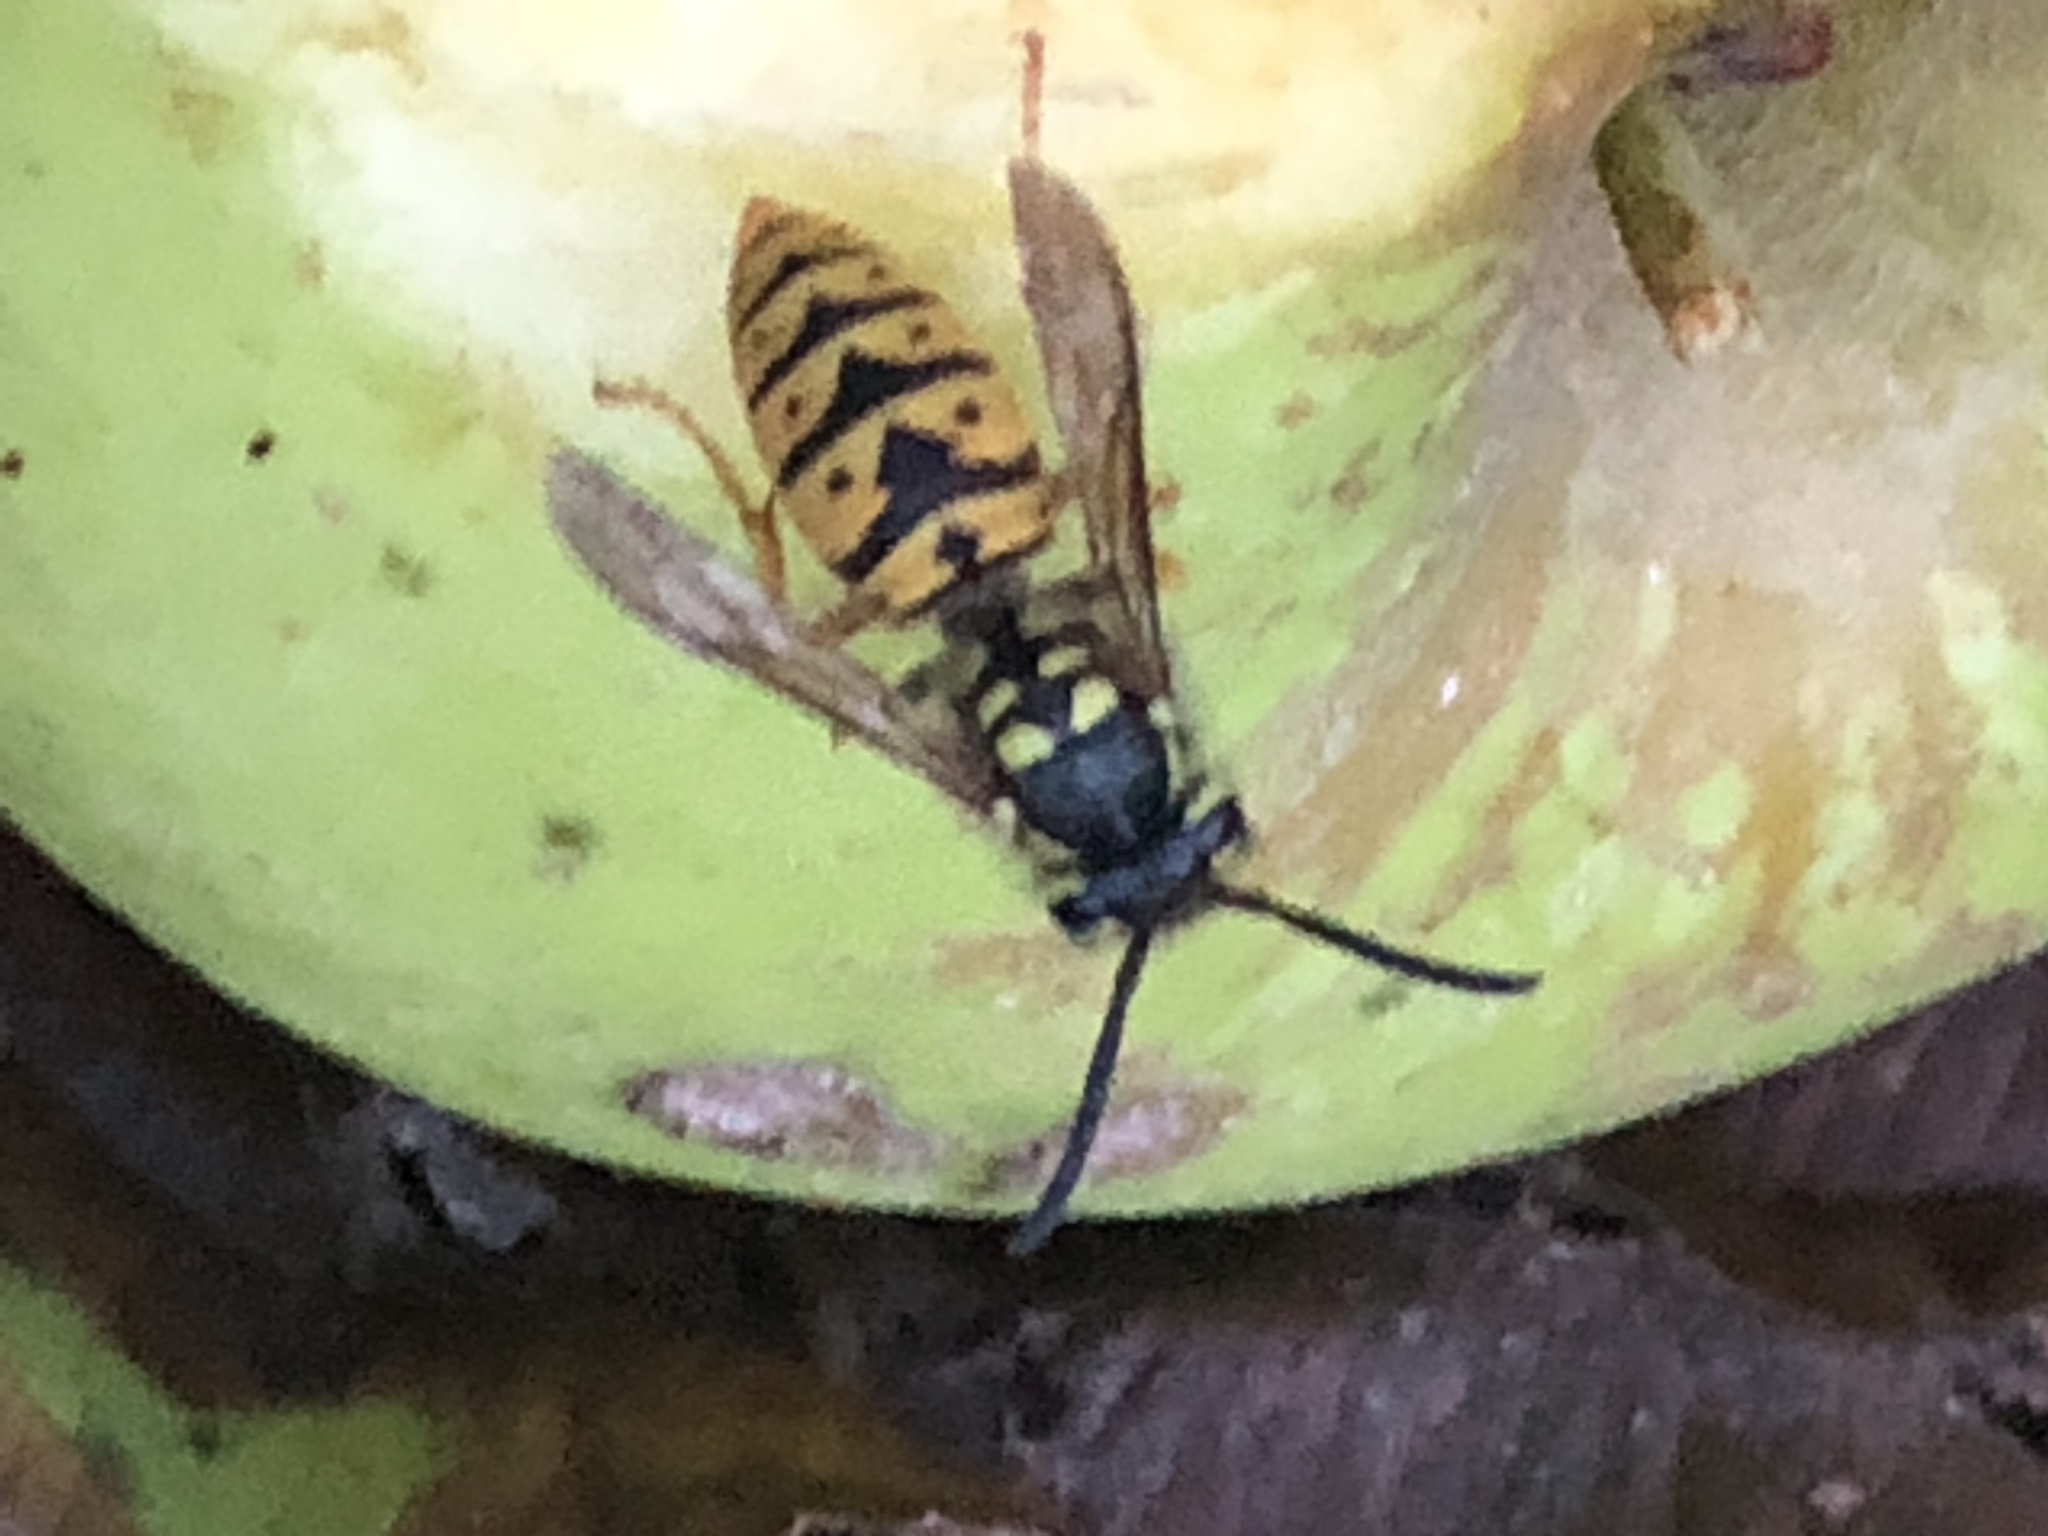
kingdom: Animalia
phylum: Arthropoda
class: Insecta
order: Hymenoptera
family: Vespidae
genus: Vespula
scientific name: Vespula germanica
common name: German wasp
